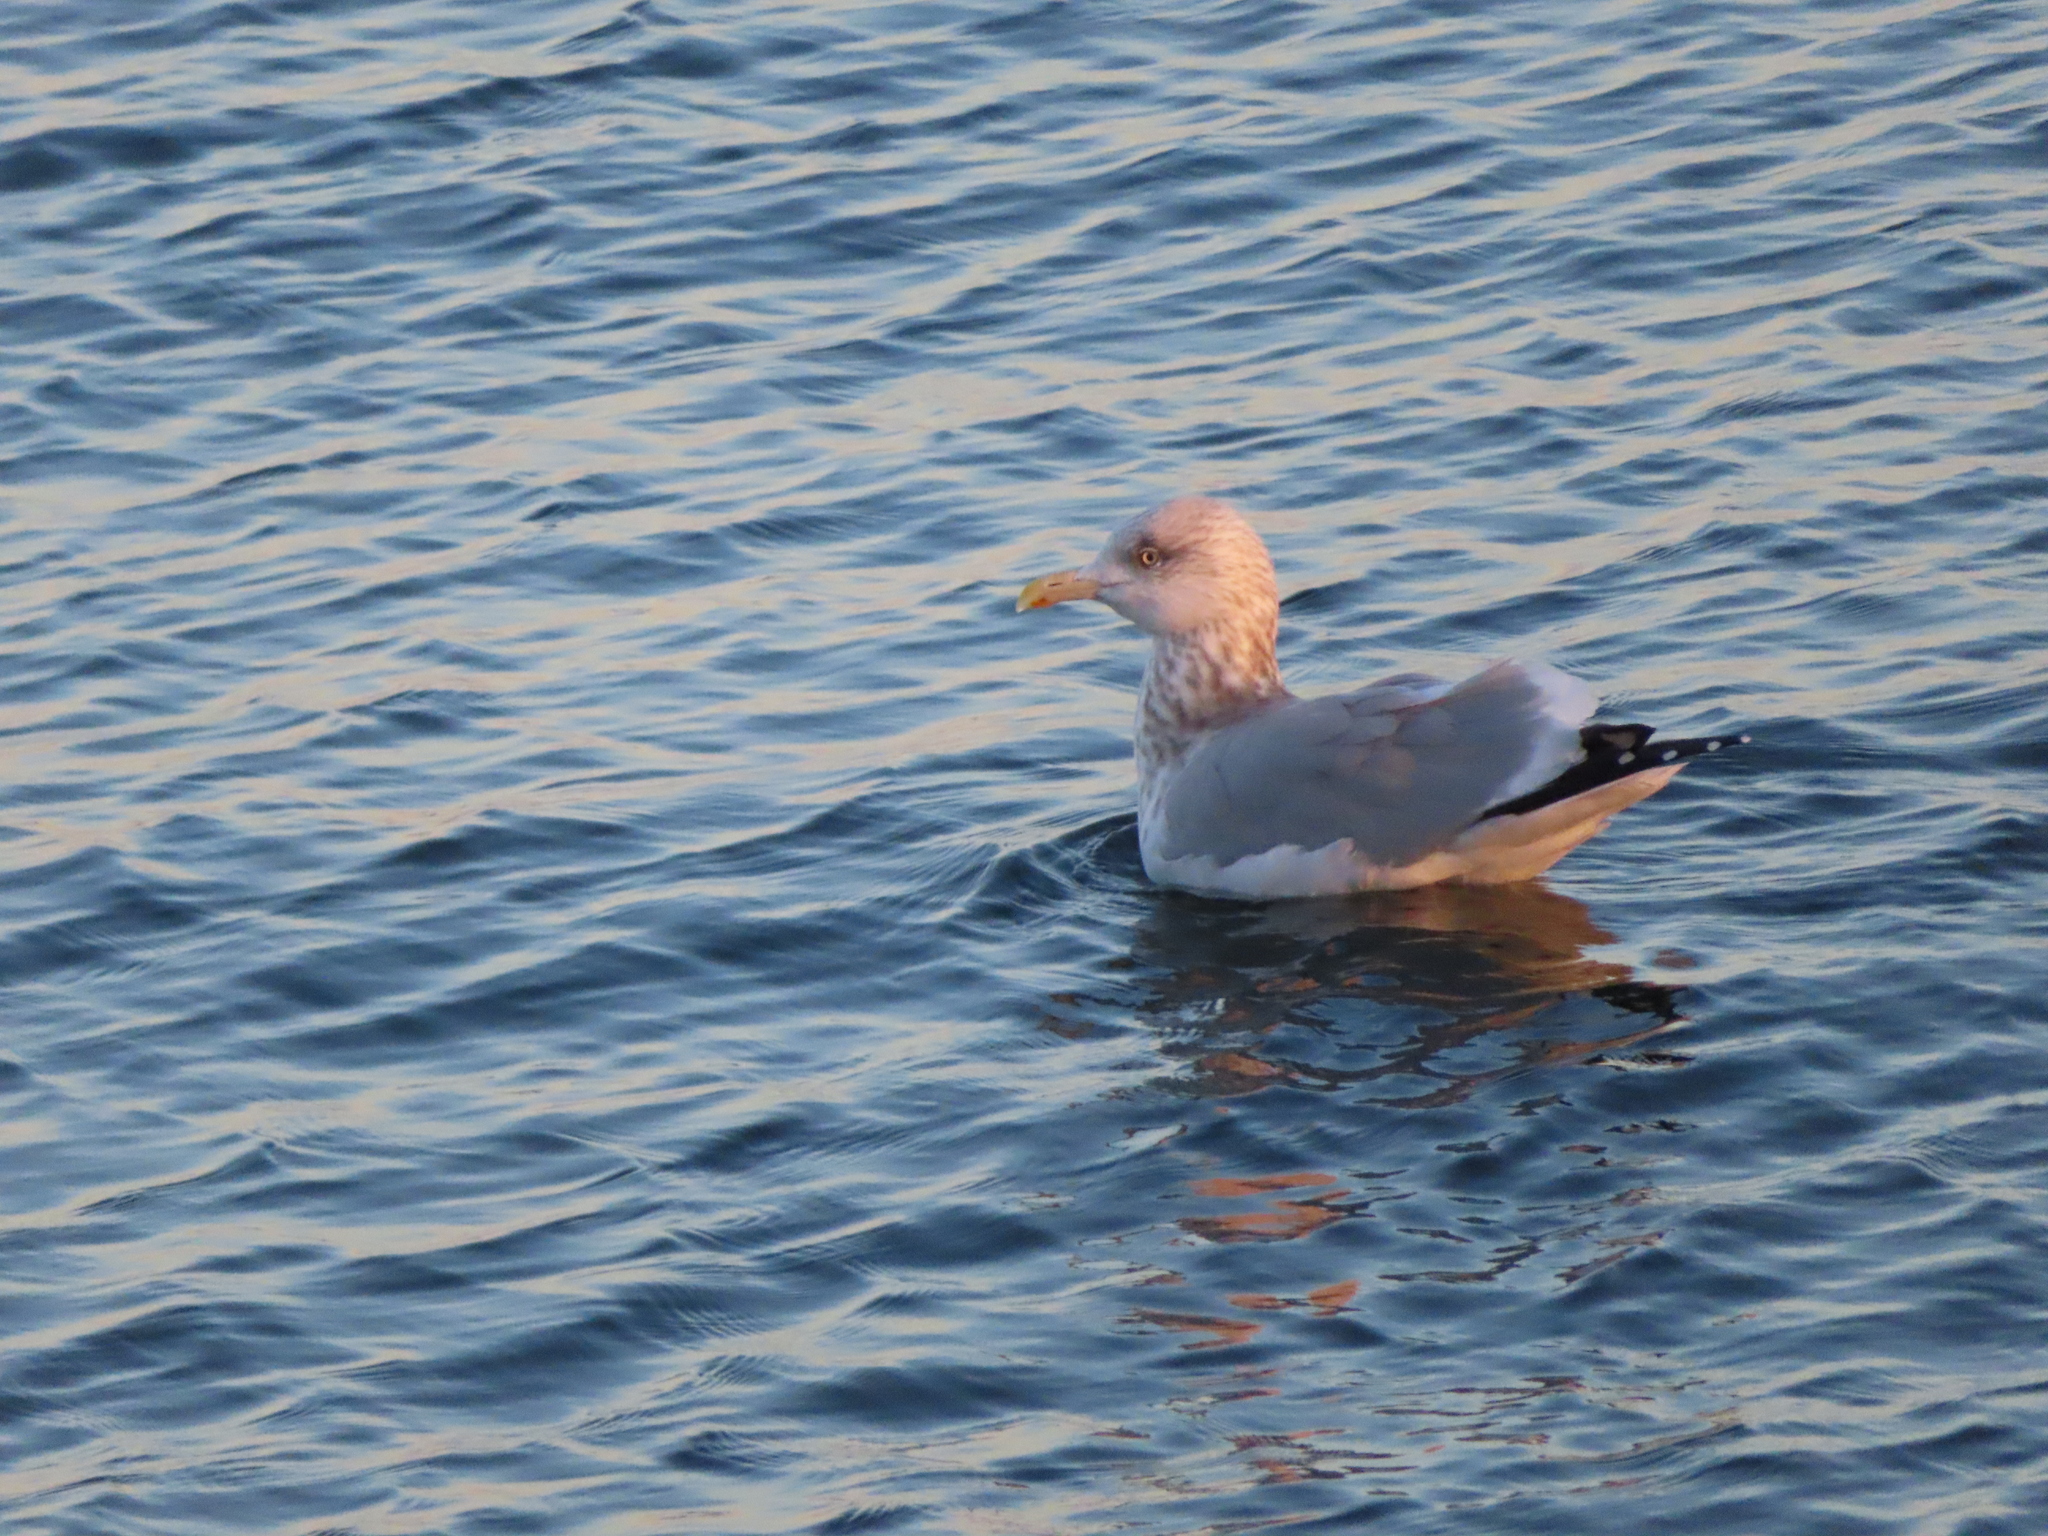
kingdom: Animalia
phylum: Chordata
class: Aves
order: Charadriiformes
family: Laridae
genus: Larus
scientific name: Larus argentatus
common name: Herring gull
